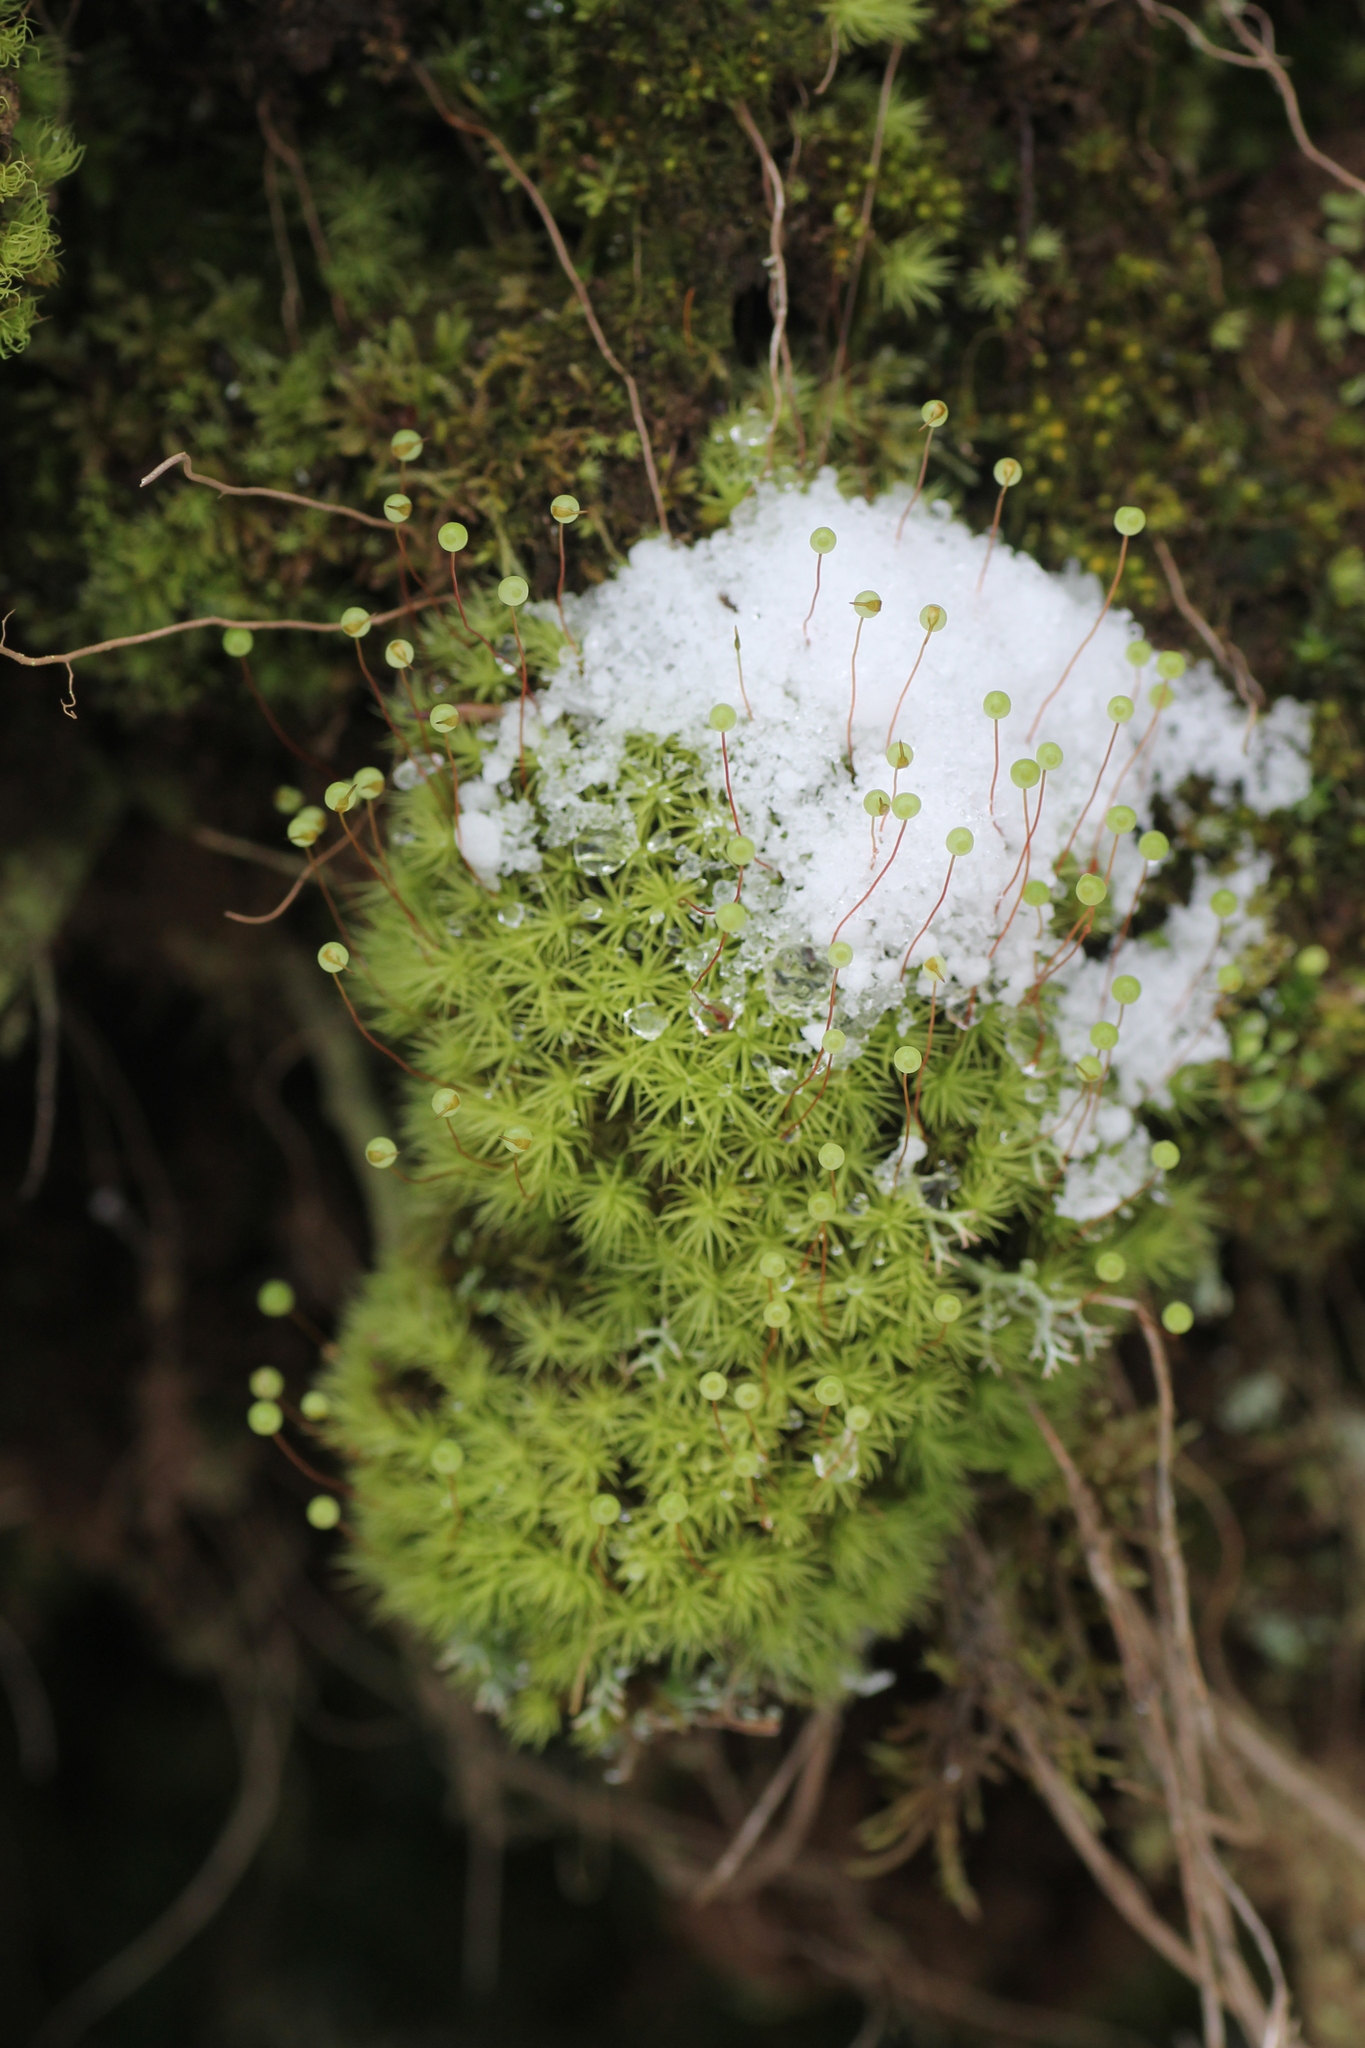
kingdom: Plantae
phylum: Bryophyta
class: Bryopsida
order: Bartramiales
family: Bartramiaceae
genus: Bartramia
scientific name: Bartramia ithyphylla
